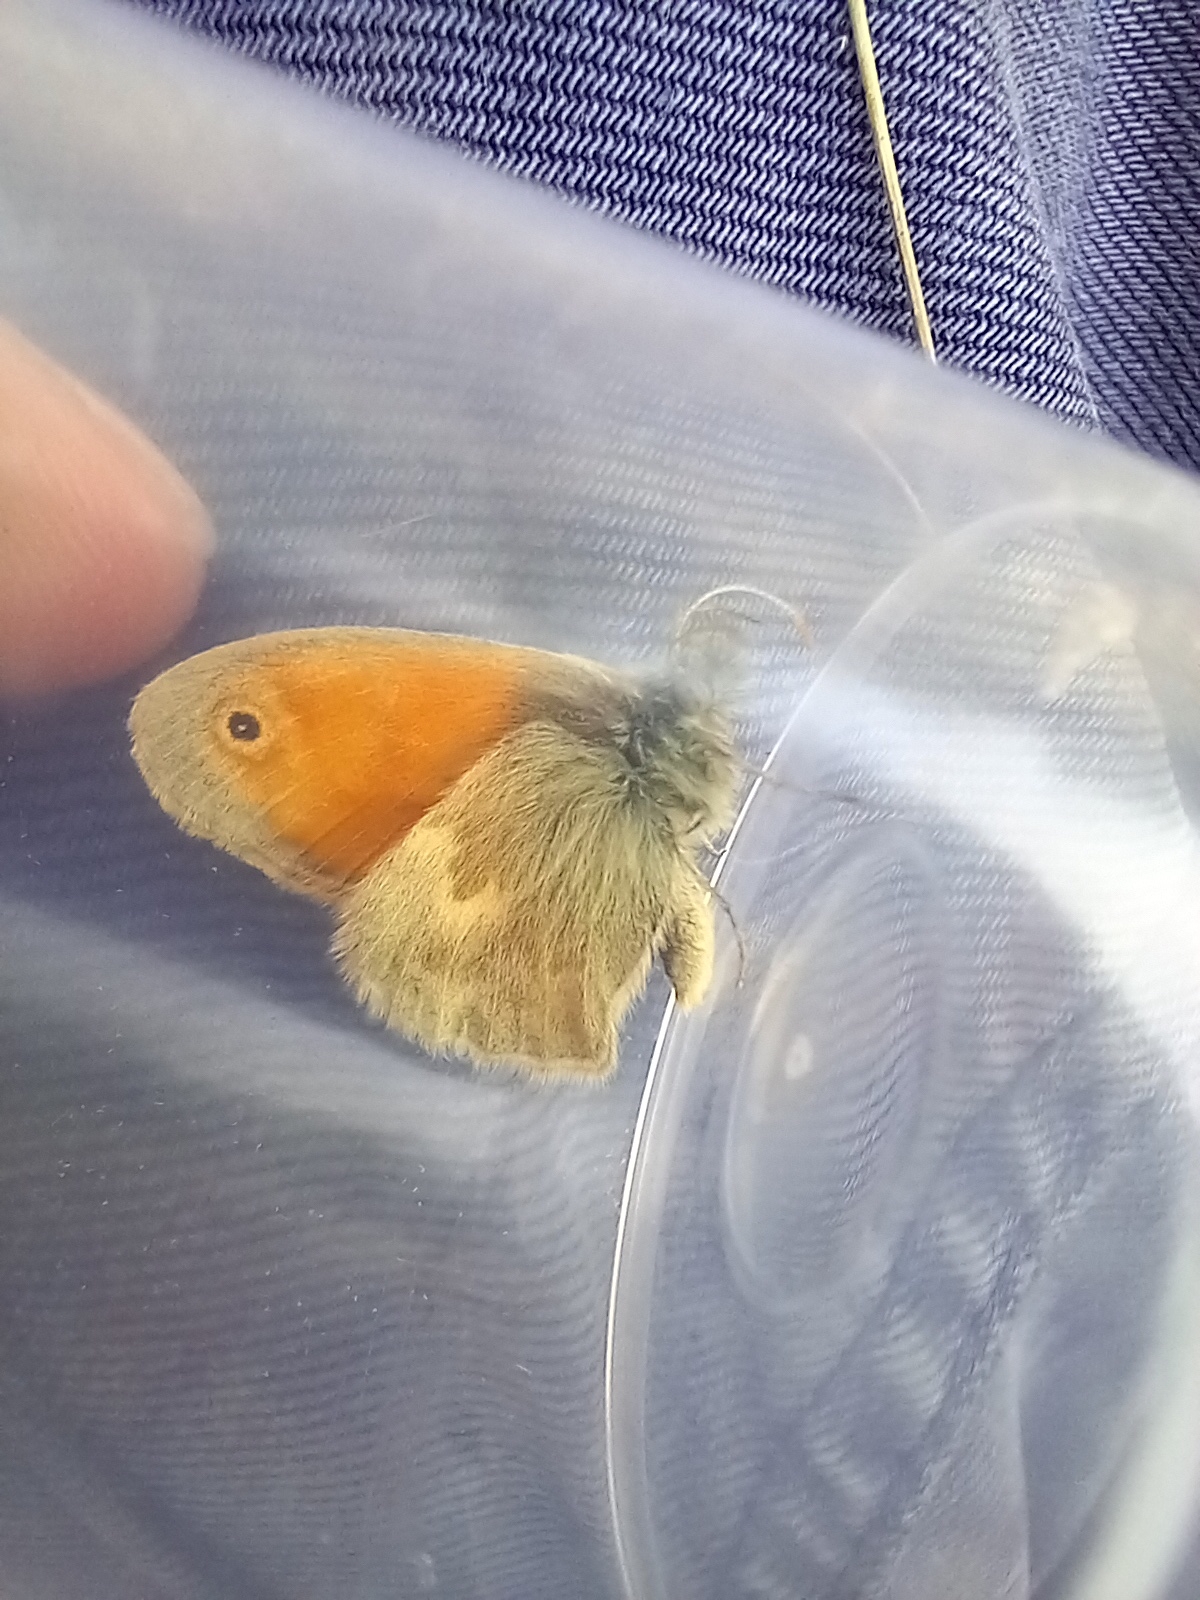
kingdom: Animalia
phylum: Arthropoda
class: Insecta
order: Lepidoptera
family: Nymphalidae
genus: Coenonympha
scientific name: Coenonympha pamphilus
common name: Small heath
